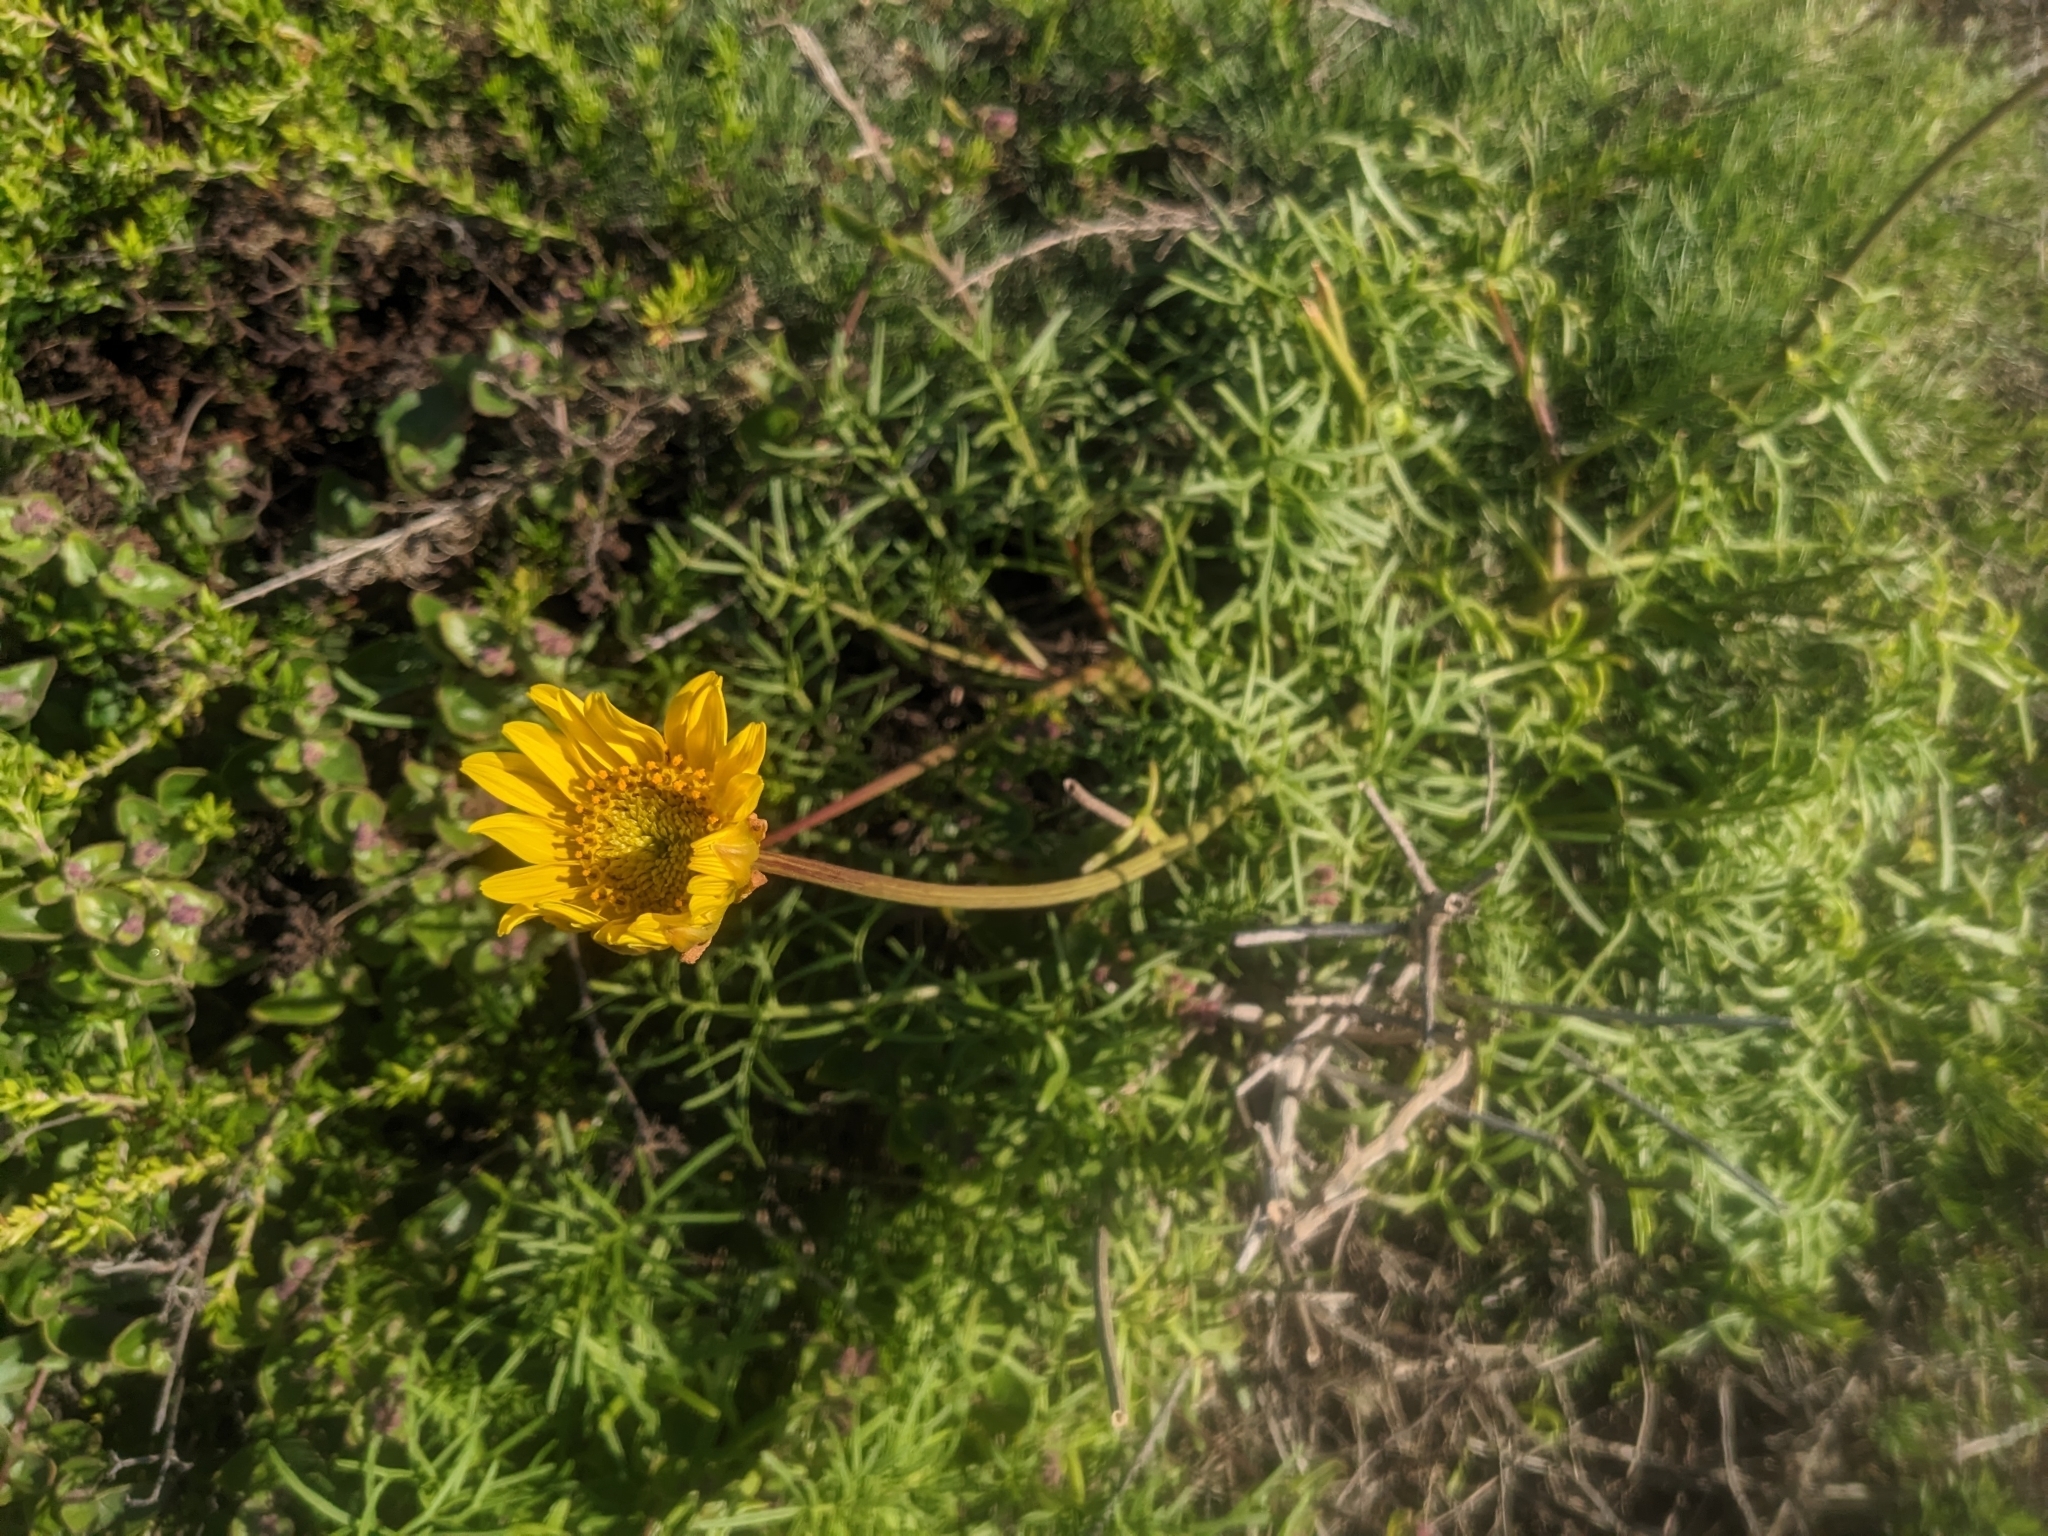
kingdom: Plantae
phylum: Tracheophyta
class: Magnoliopsida
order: Asterales
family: Asteraceae
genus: Coreopsis
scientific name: Coreopsis maritima
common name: Sea-dahlia
